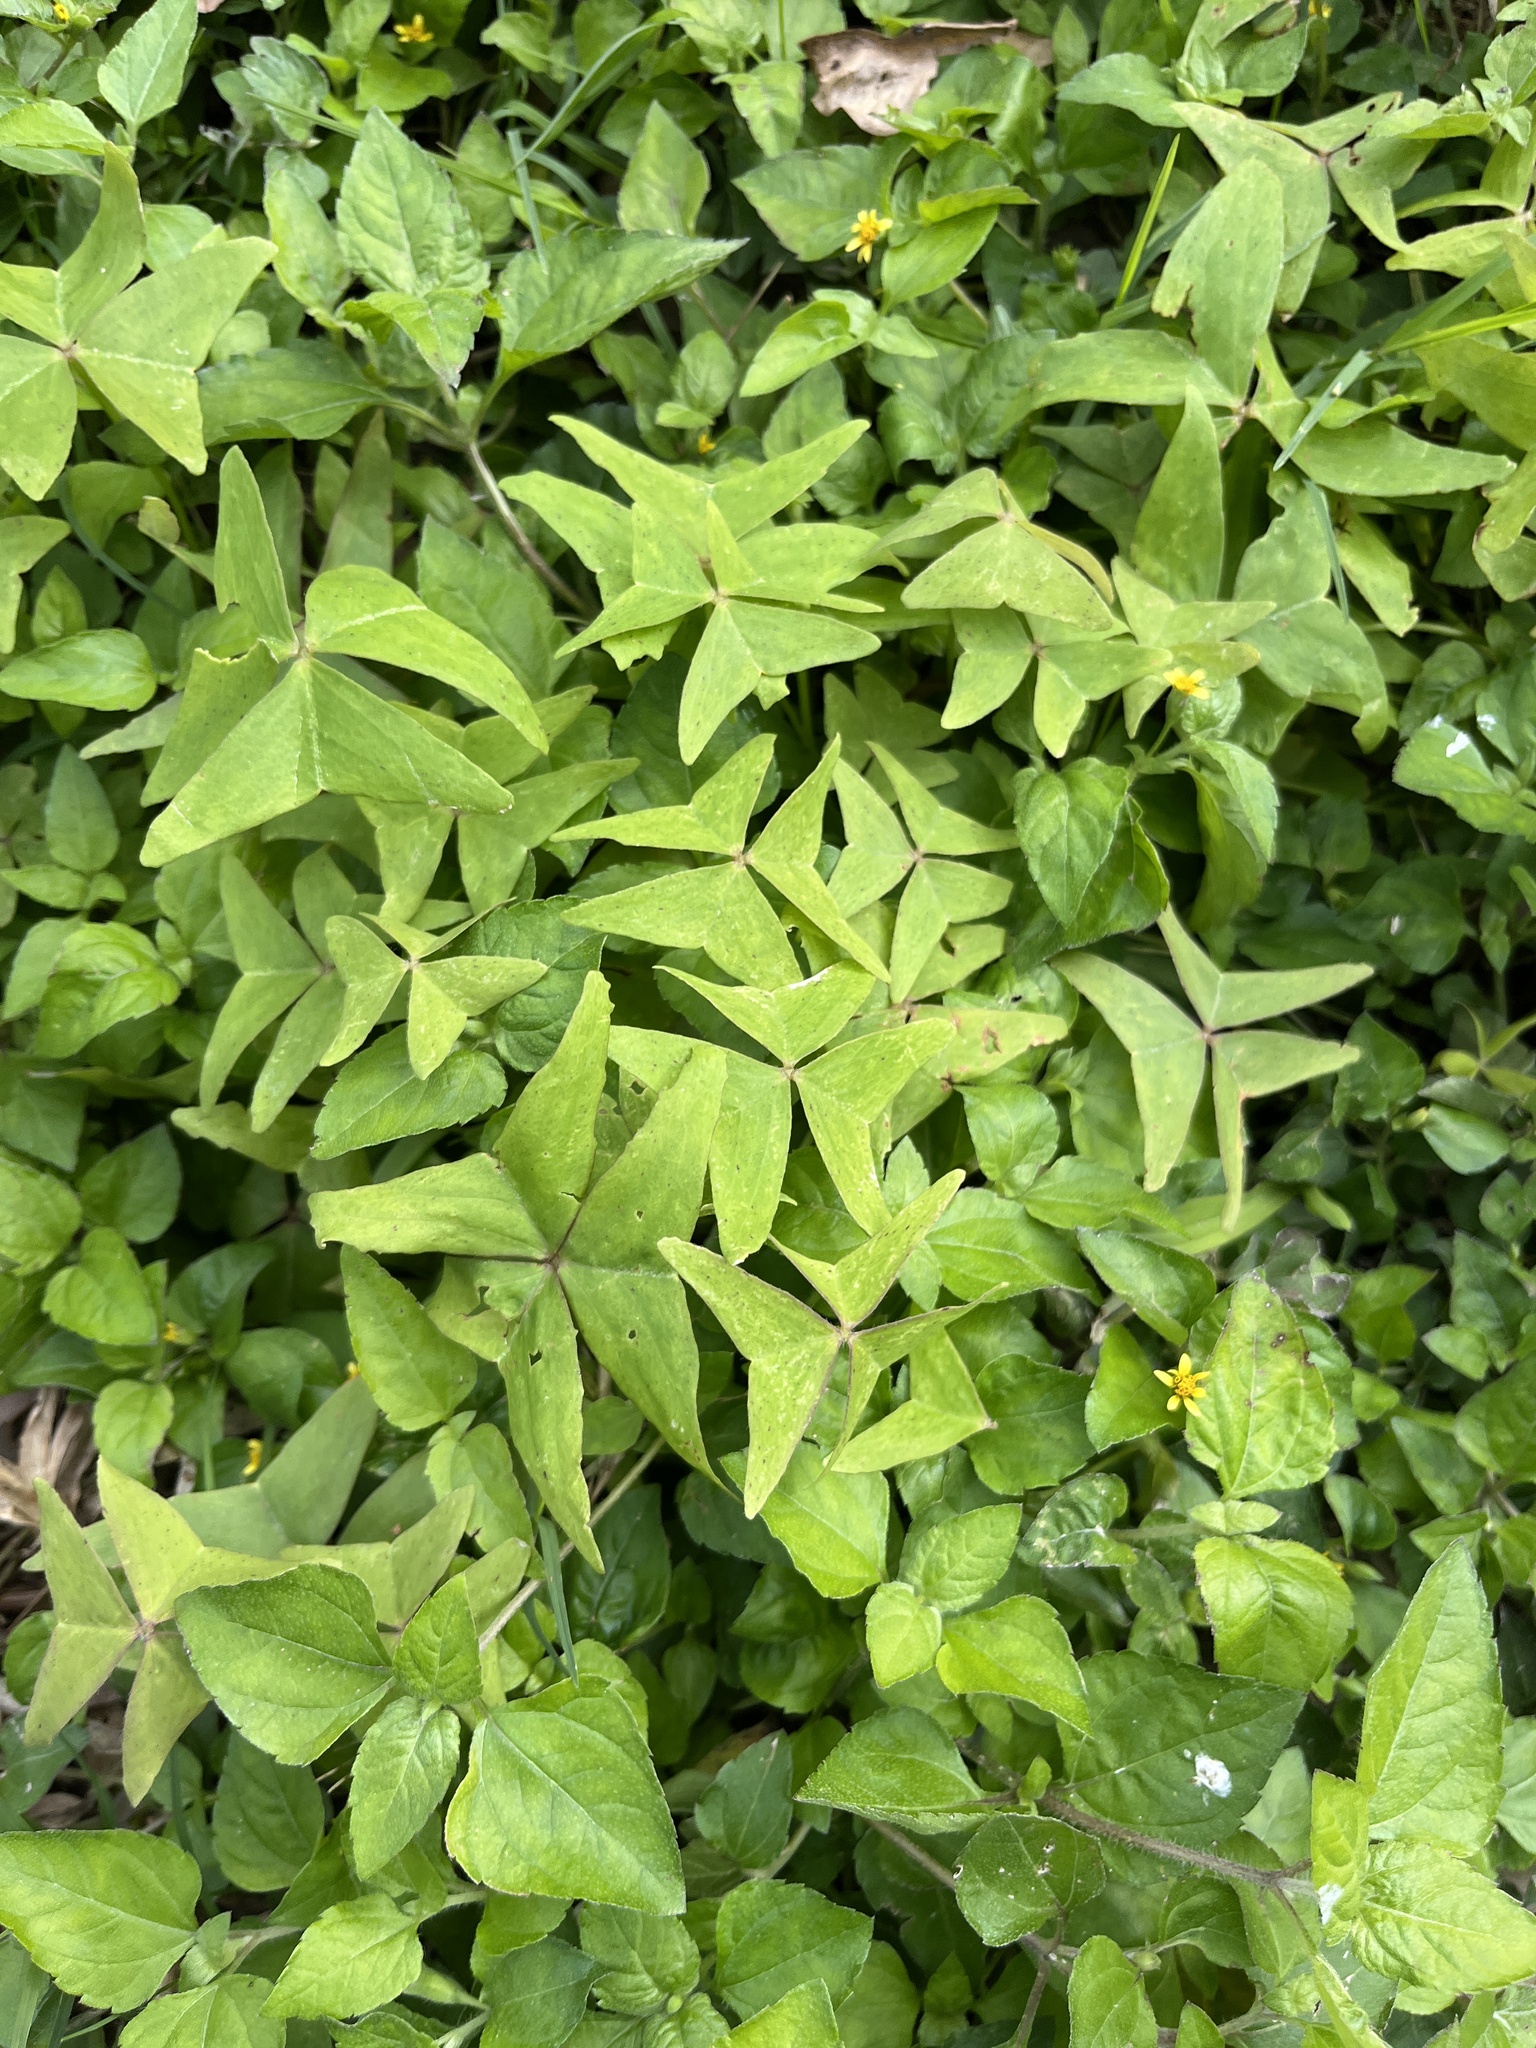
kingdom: Plantae
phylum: Tracheophyta
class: Magnoliopsida
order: Asterales
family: Asteraceae
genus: Calyptocarpus
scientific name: Calyptocarpus vialis
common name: Straggler daisy
